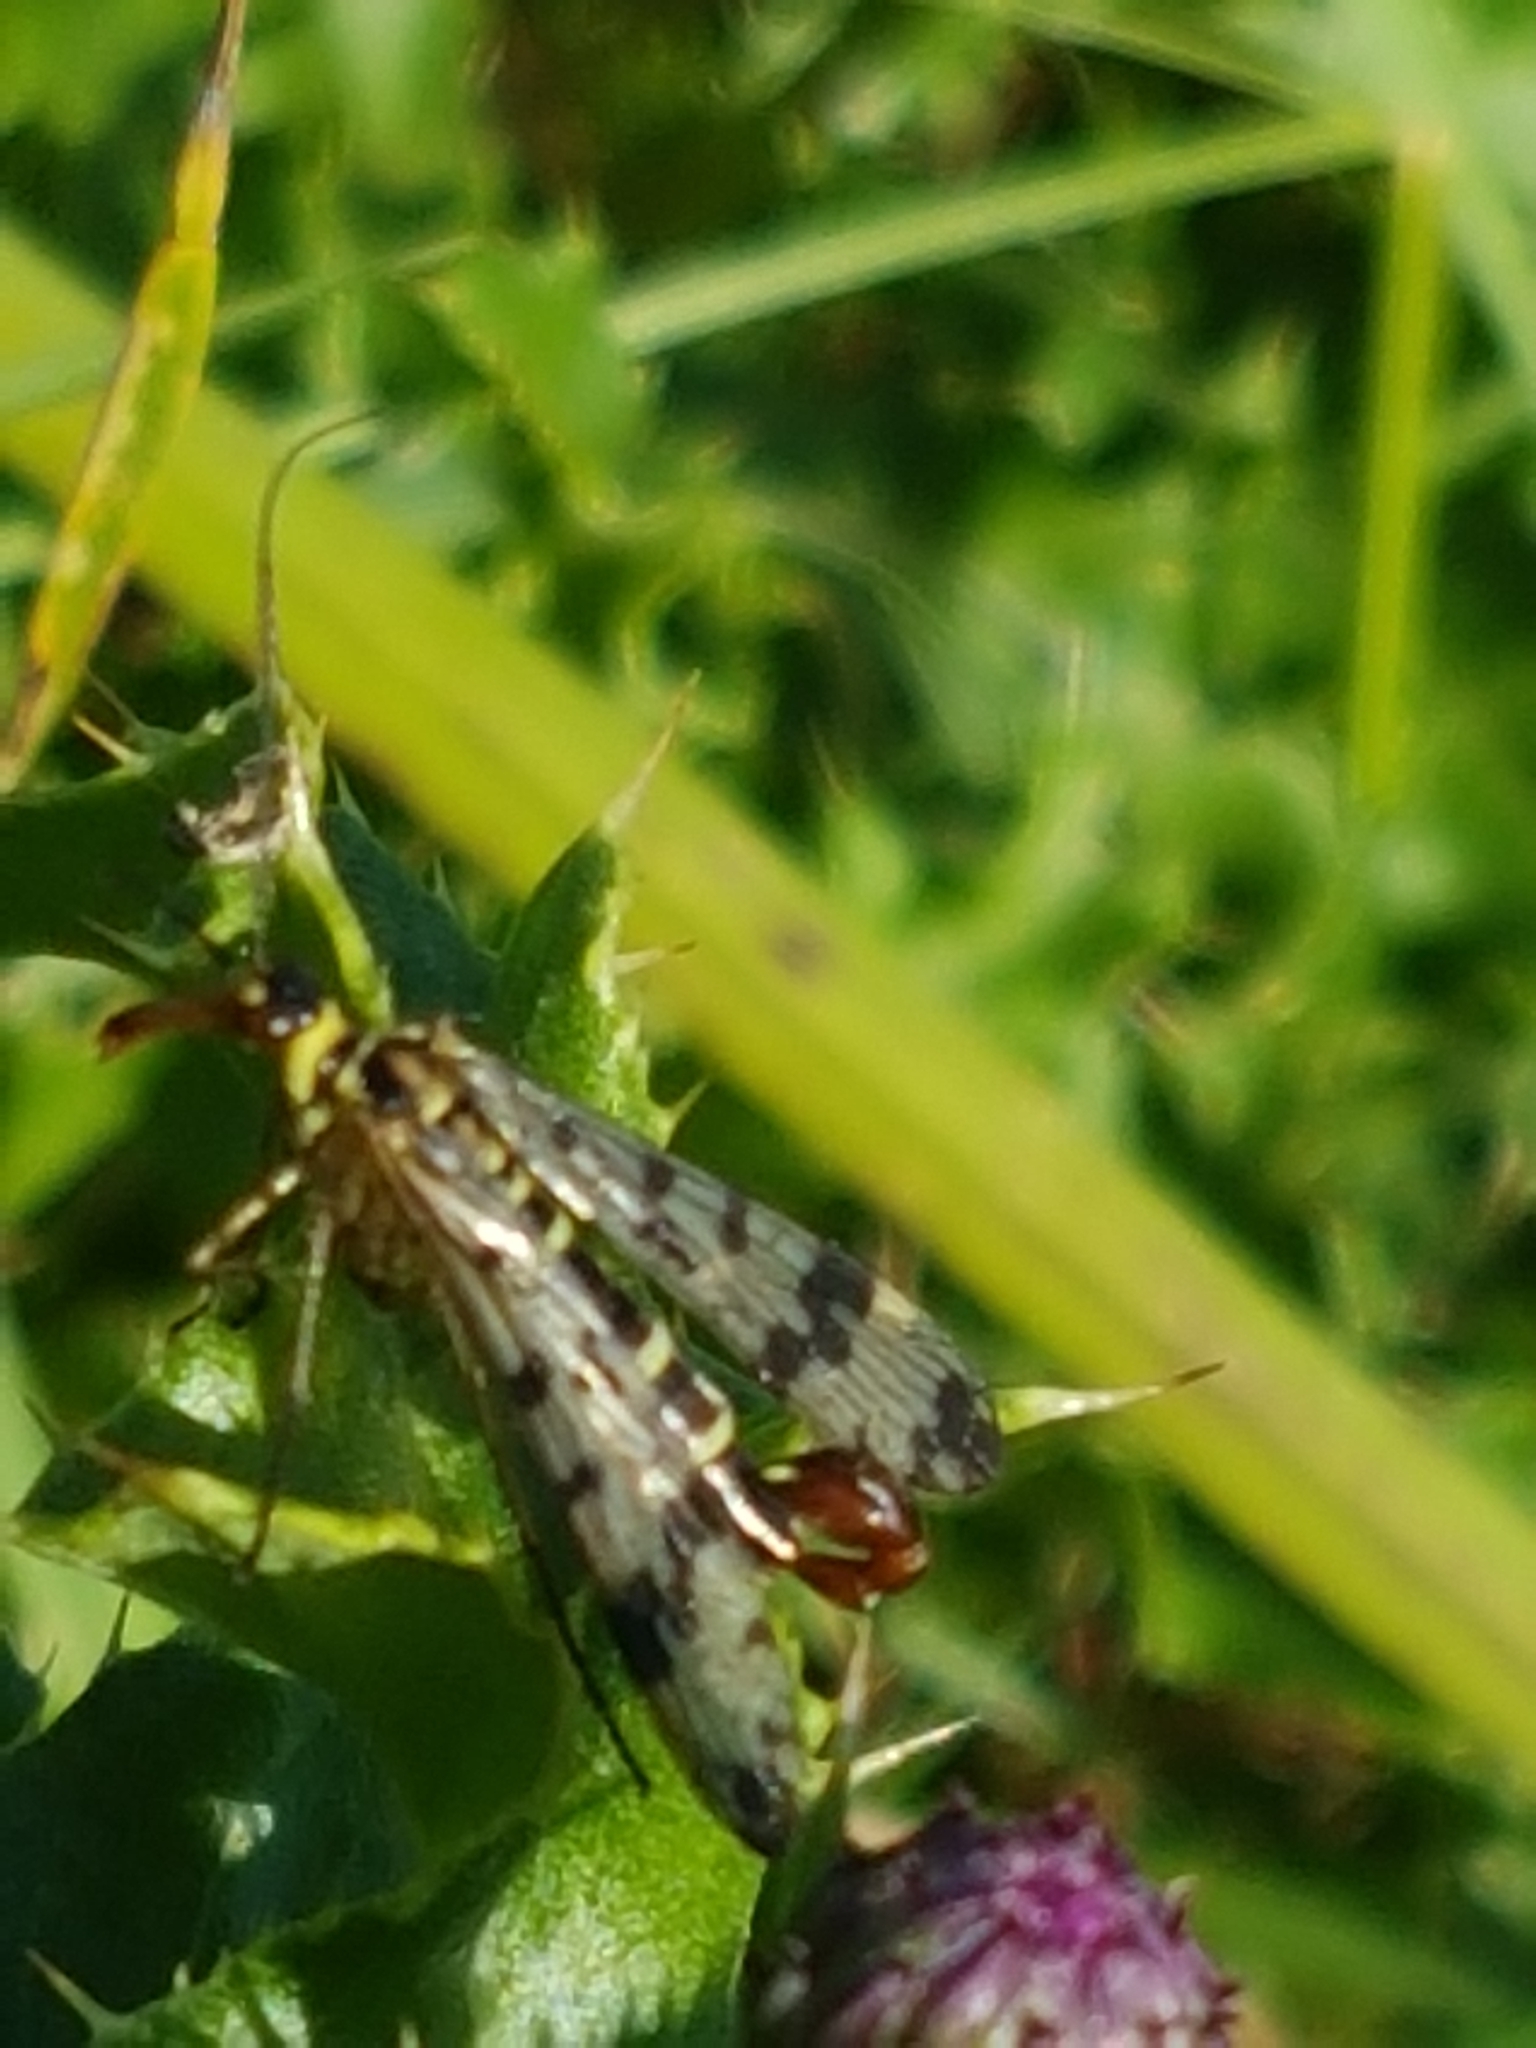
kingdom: Animalia
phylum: Arthropoda
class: Insecta
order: Mecoptera
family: Panorpidae
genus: Panorpa
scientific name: Panorpa communis
